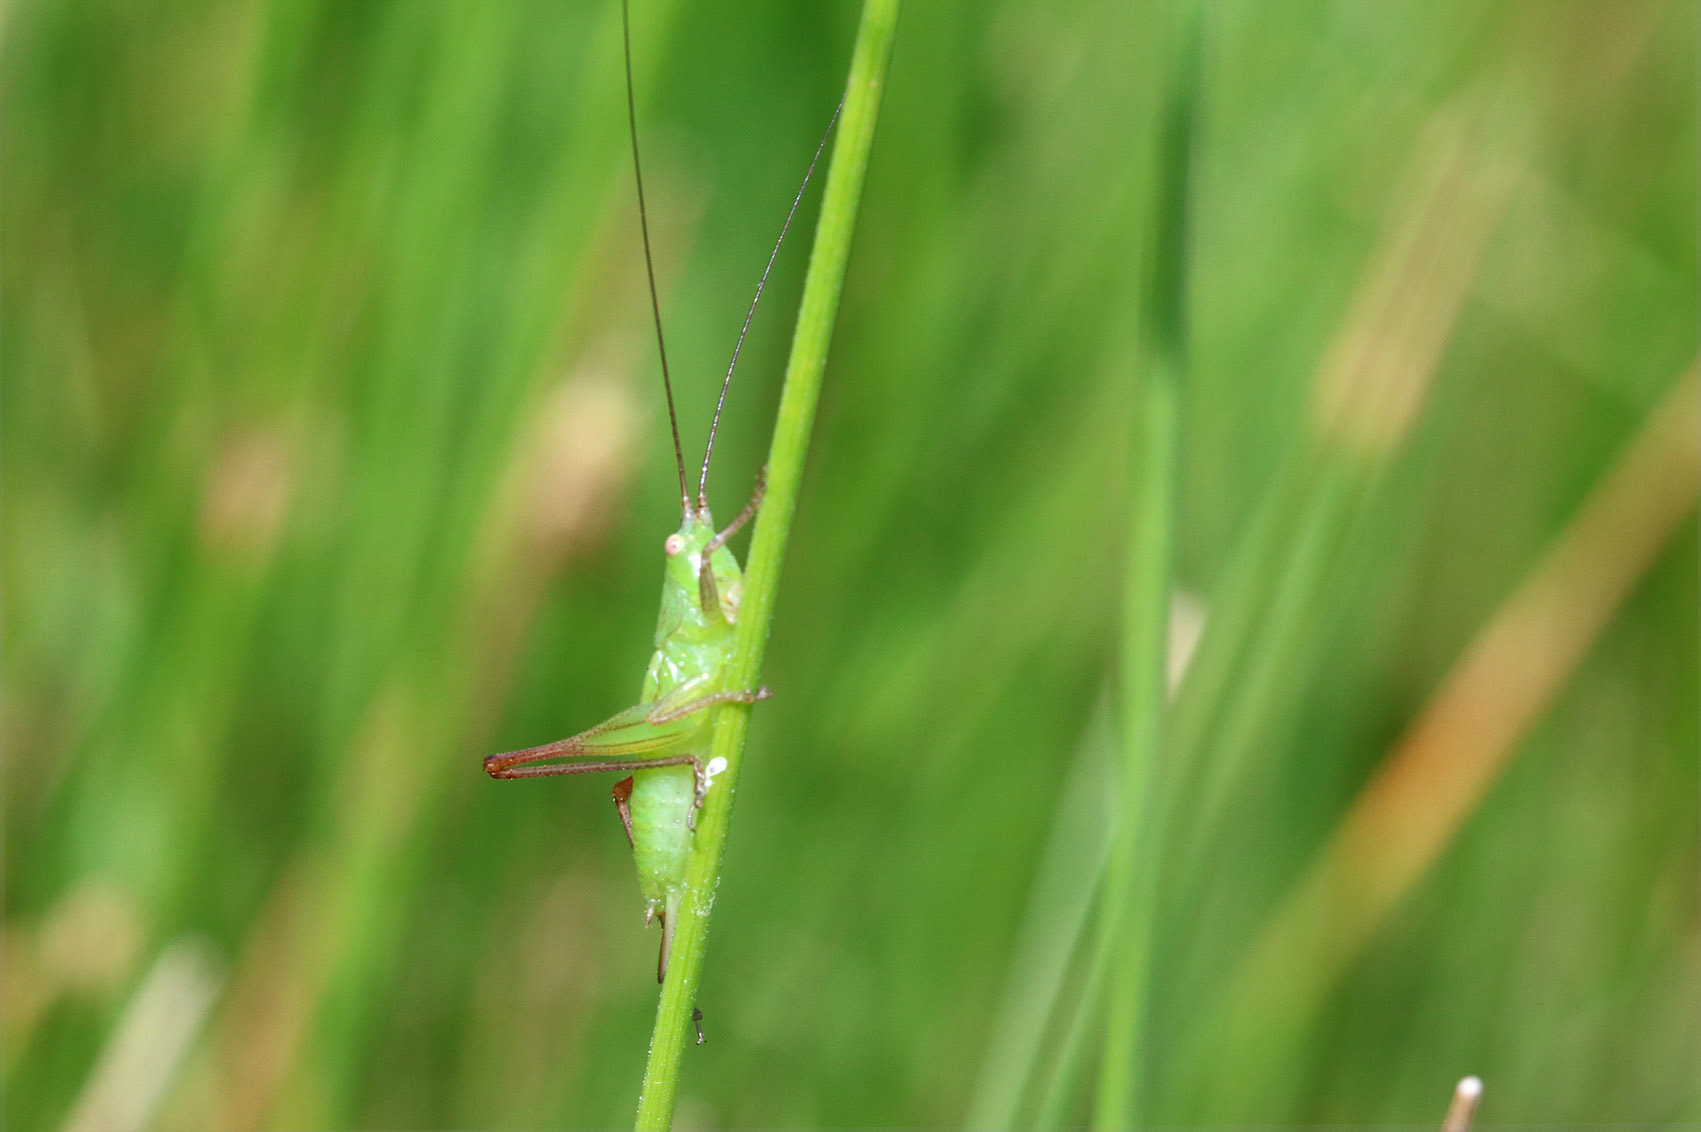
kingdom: Animalia
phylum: Arthropoda
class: Insecta
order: Orthoptera
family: Tettigoniidae
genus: Conocephalus
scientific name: Conocephalus longipes
